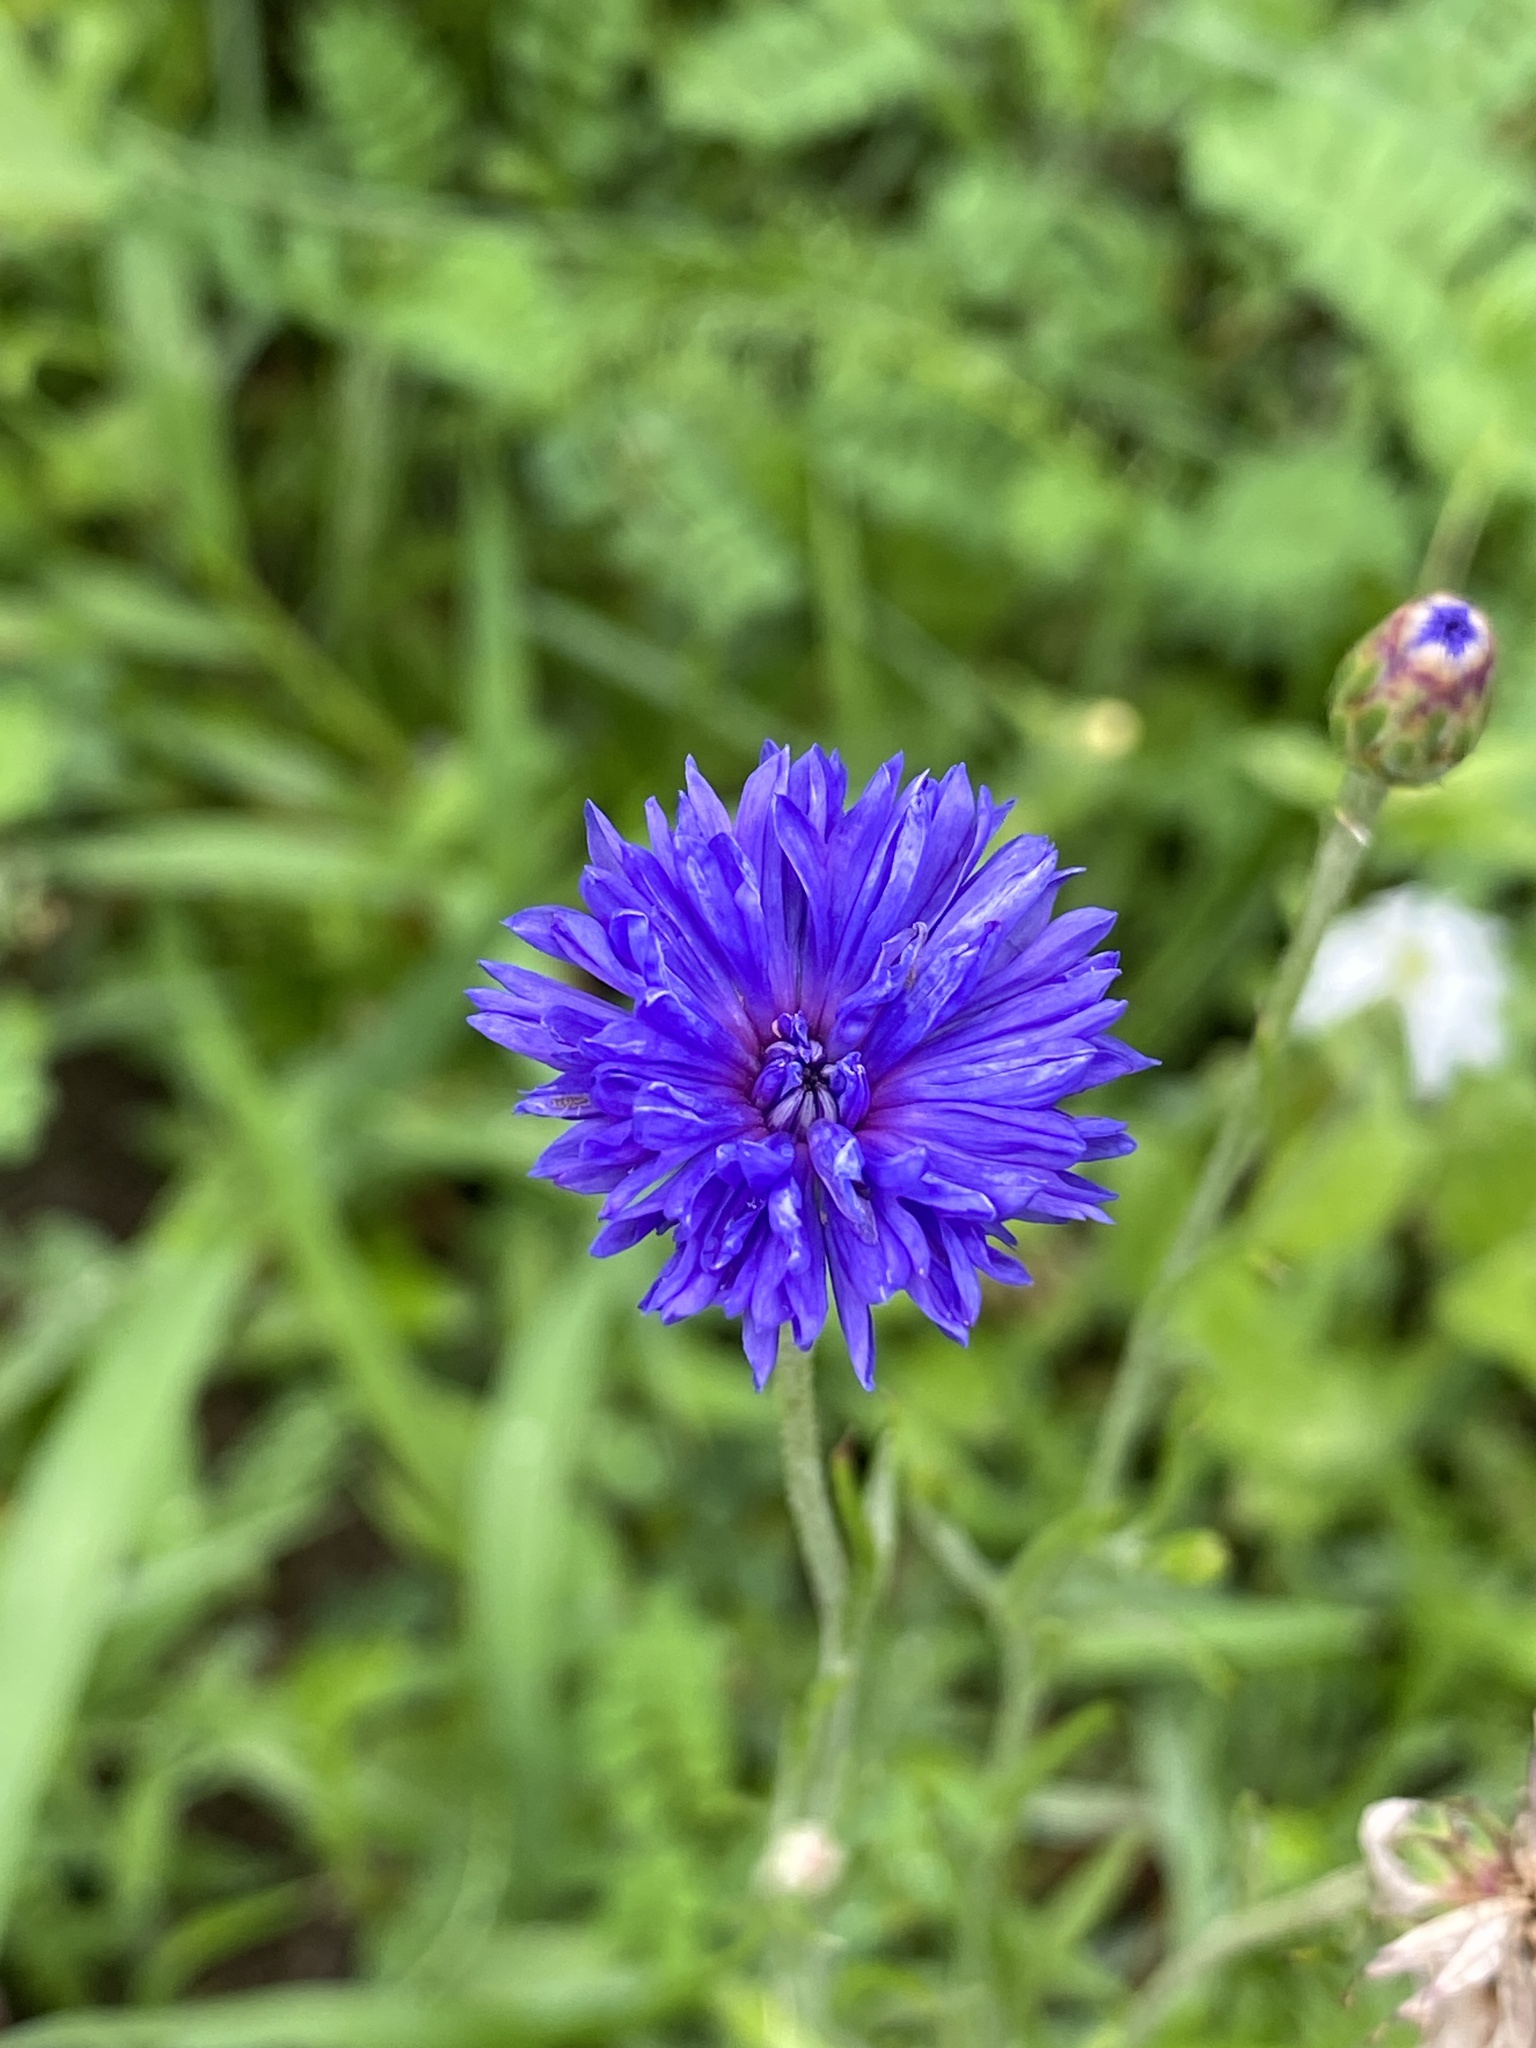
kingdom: Plantae
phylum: Tracheophyta
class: Magnoliopsida
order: Asterales
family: Asteraceae
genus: Centaurea
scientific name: Centaurea cyanus
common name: Cornflower
